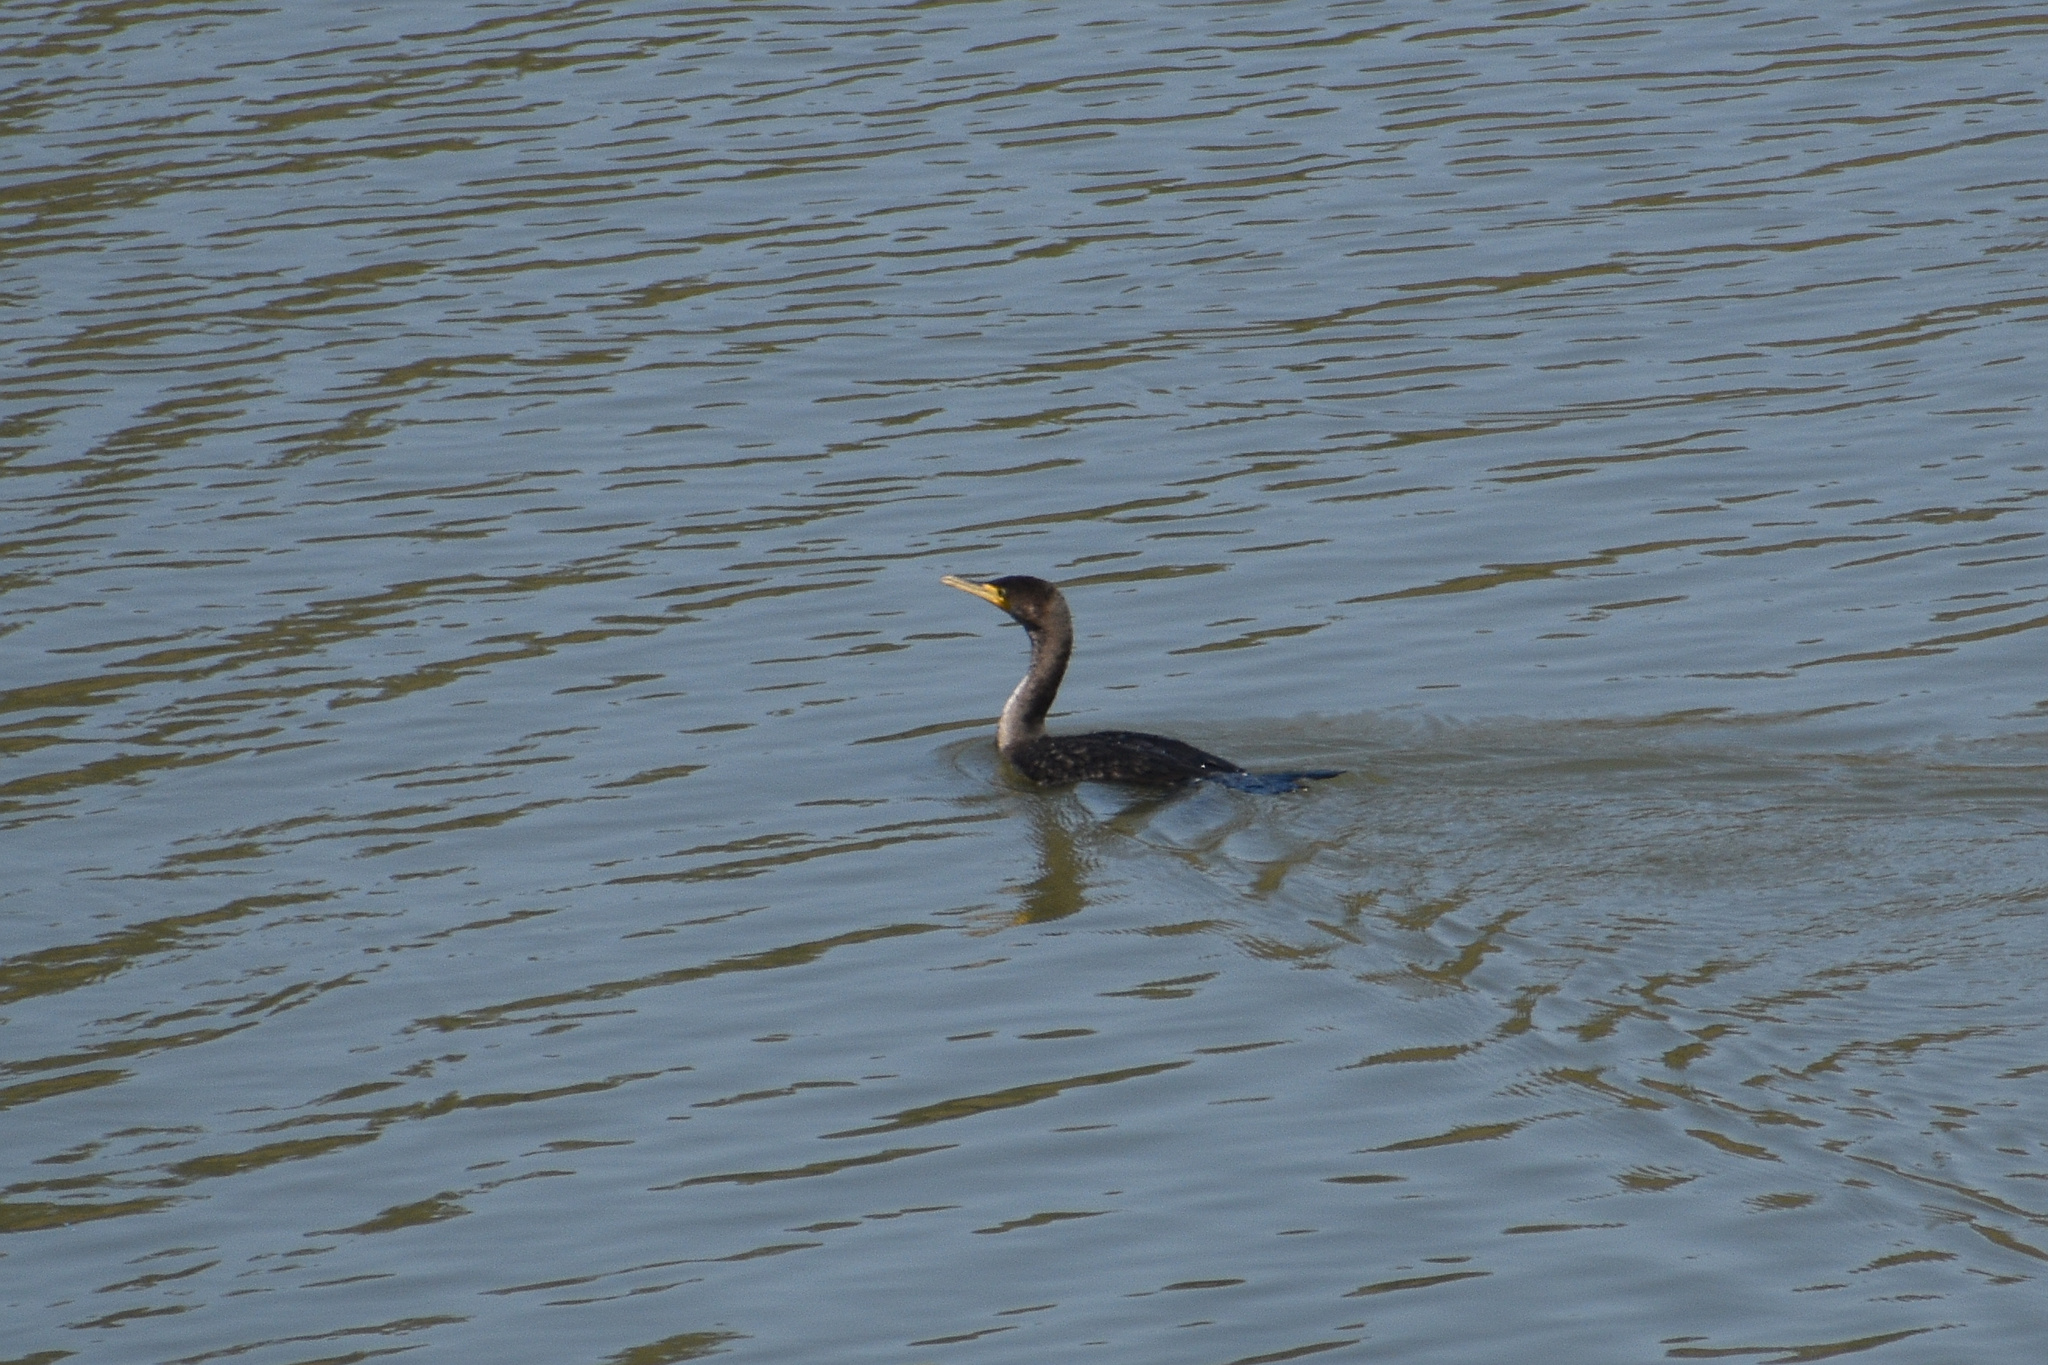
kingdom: Animalia
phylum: Chordata
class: Aves
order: Suliformes
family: Phalacrocoracidae
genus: Phalacrocorax
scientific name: Phalacrocorax auritus
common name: Double-crested cormorant
